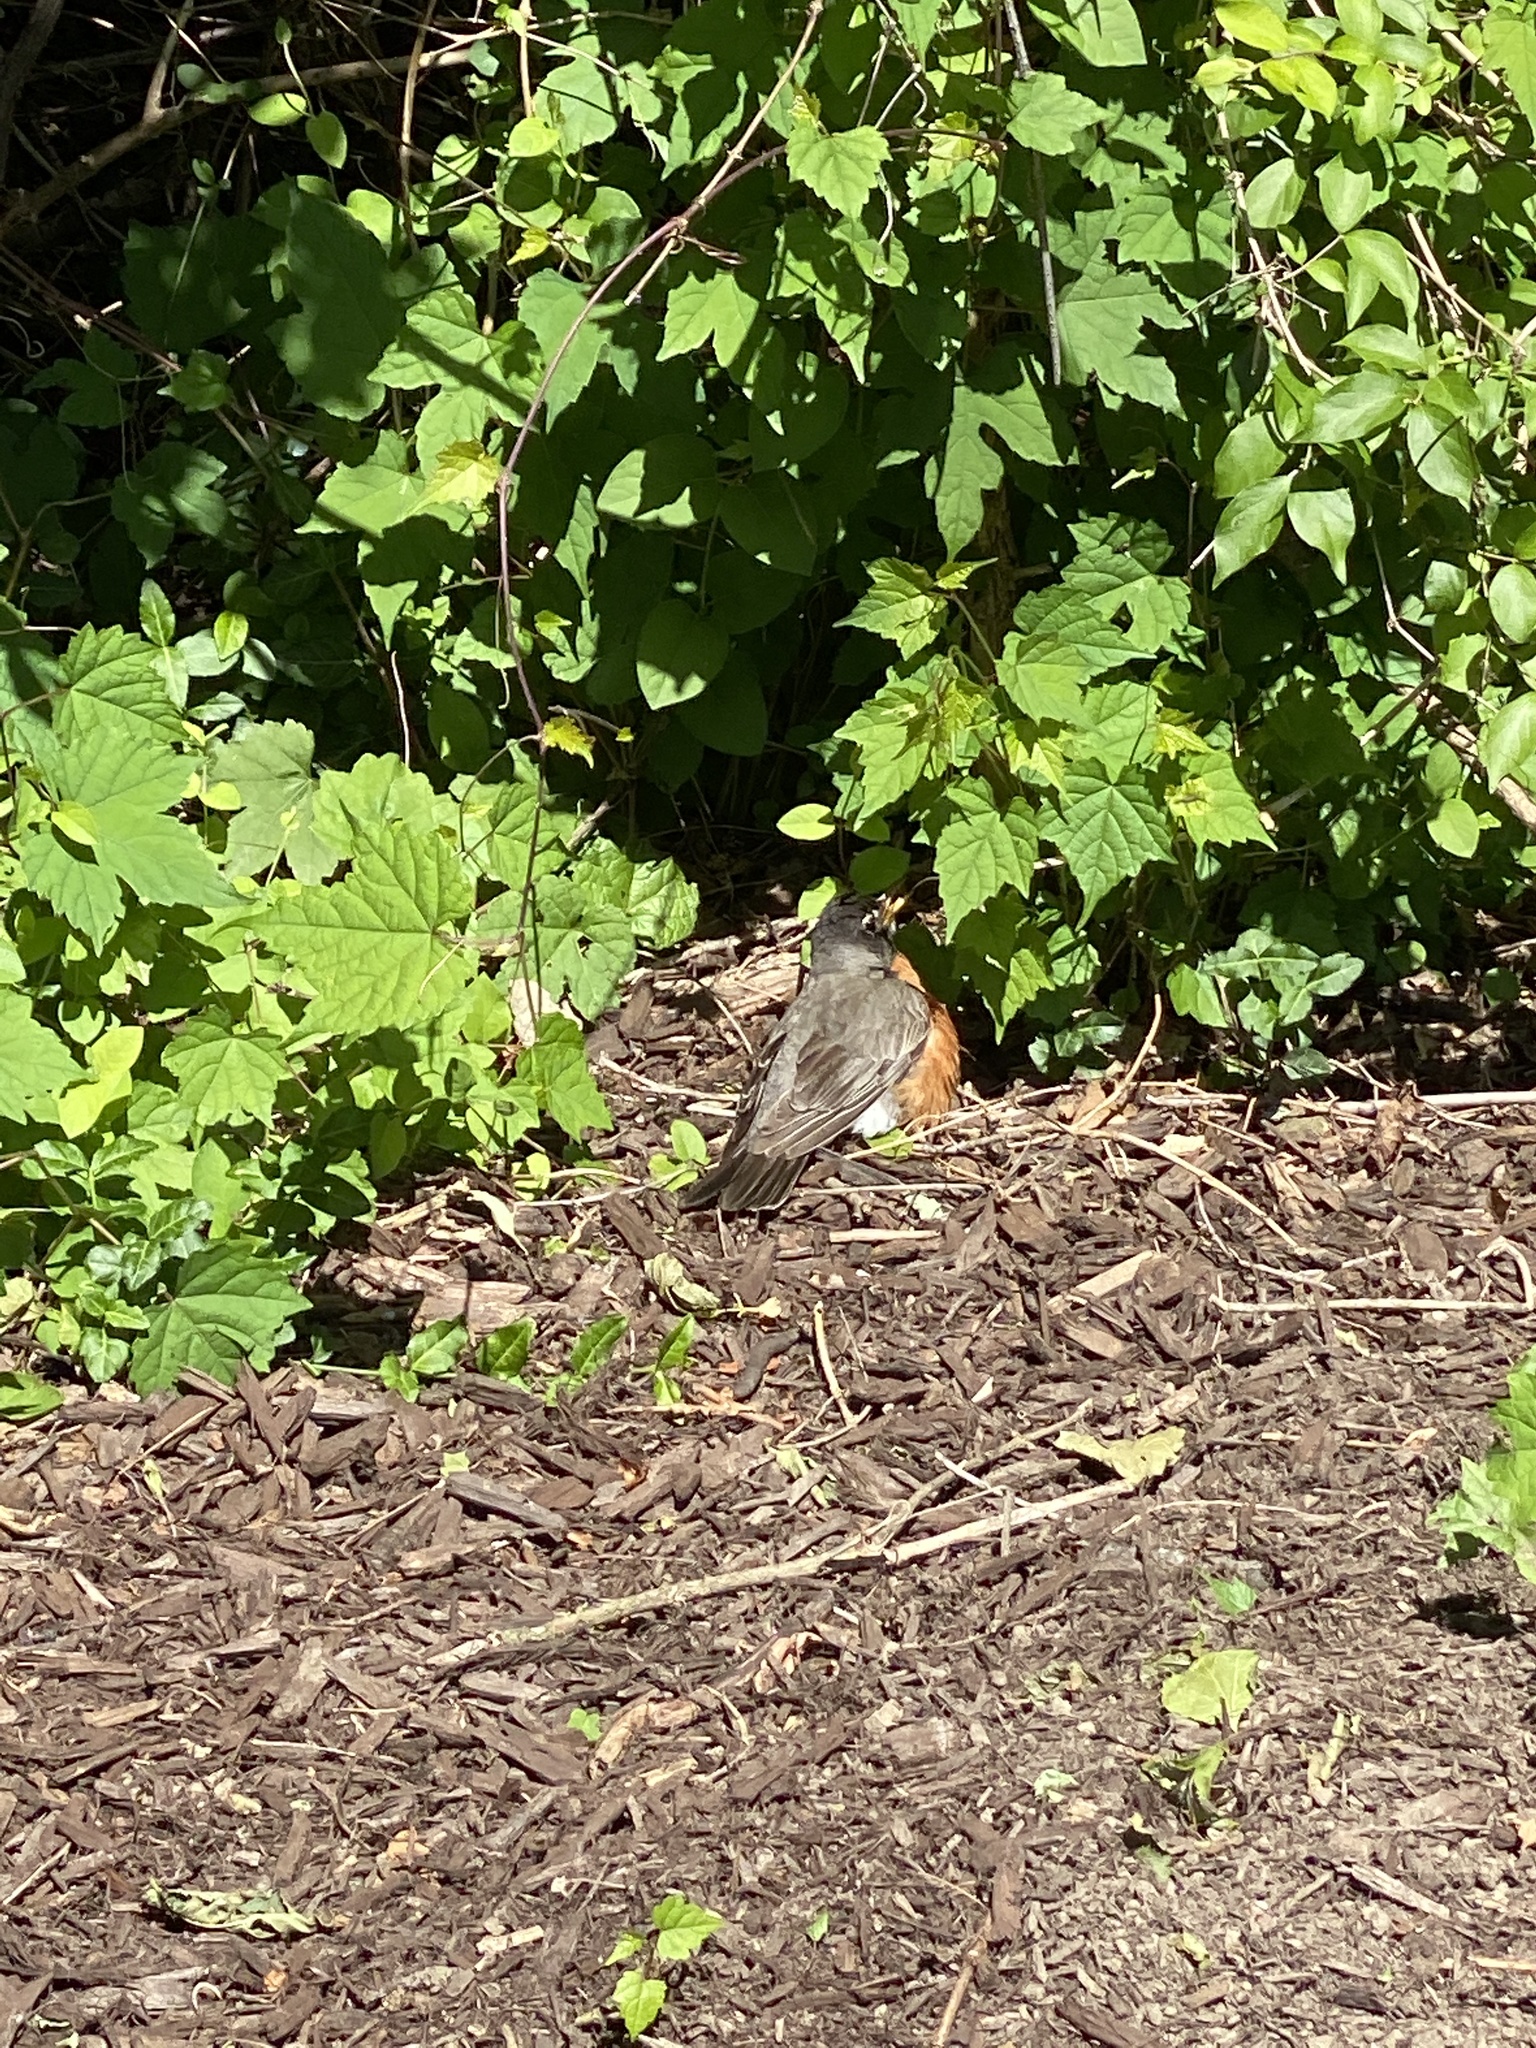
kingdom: Animalia
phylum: Chordata
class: Aves
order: Passeriformes
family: Turdidae
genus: Turdus
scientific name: Turdus migratorius
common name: American robin
